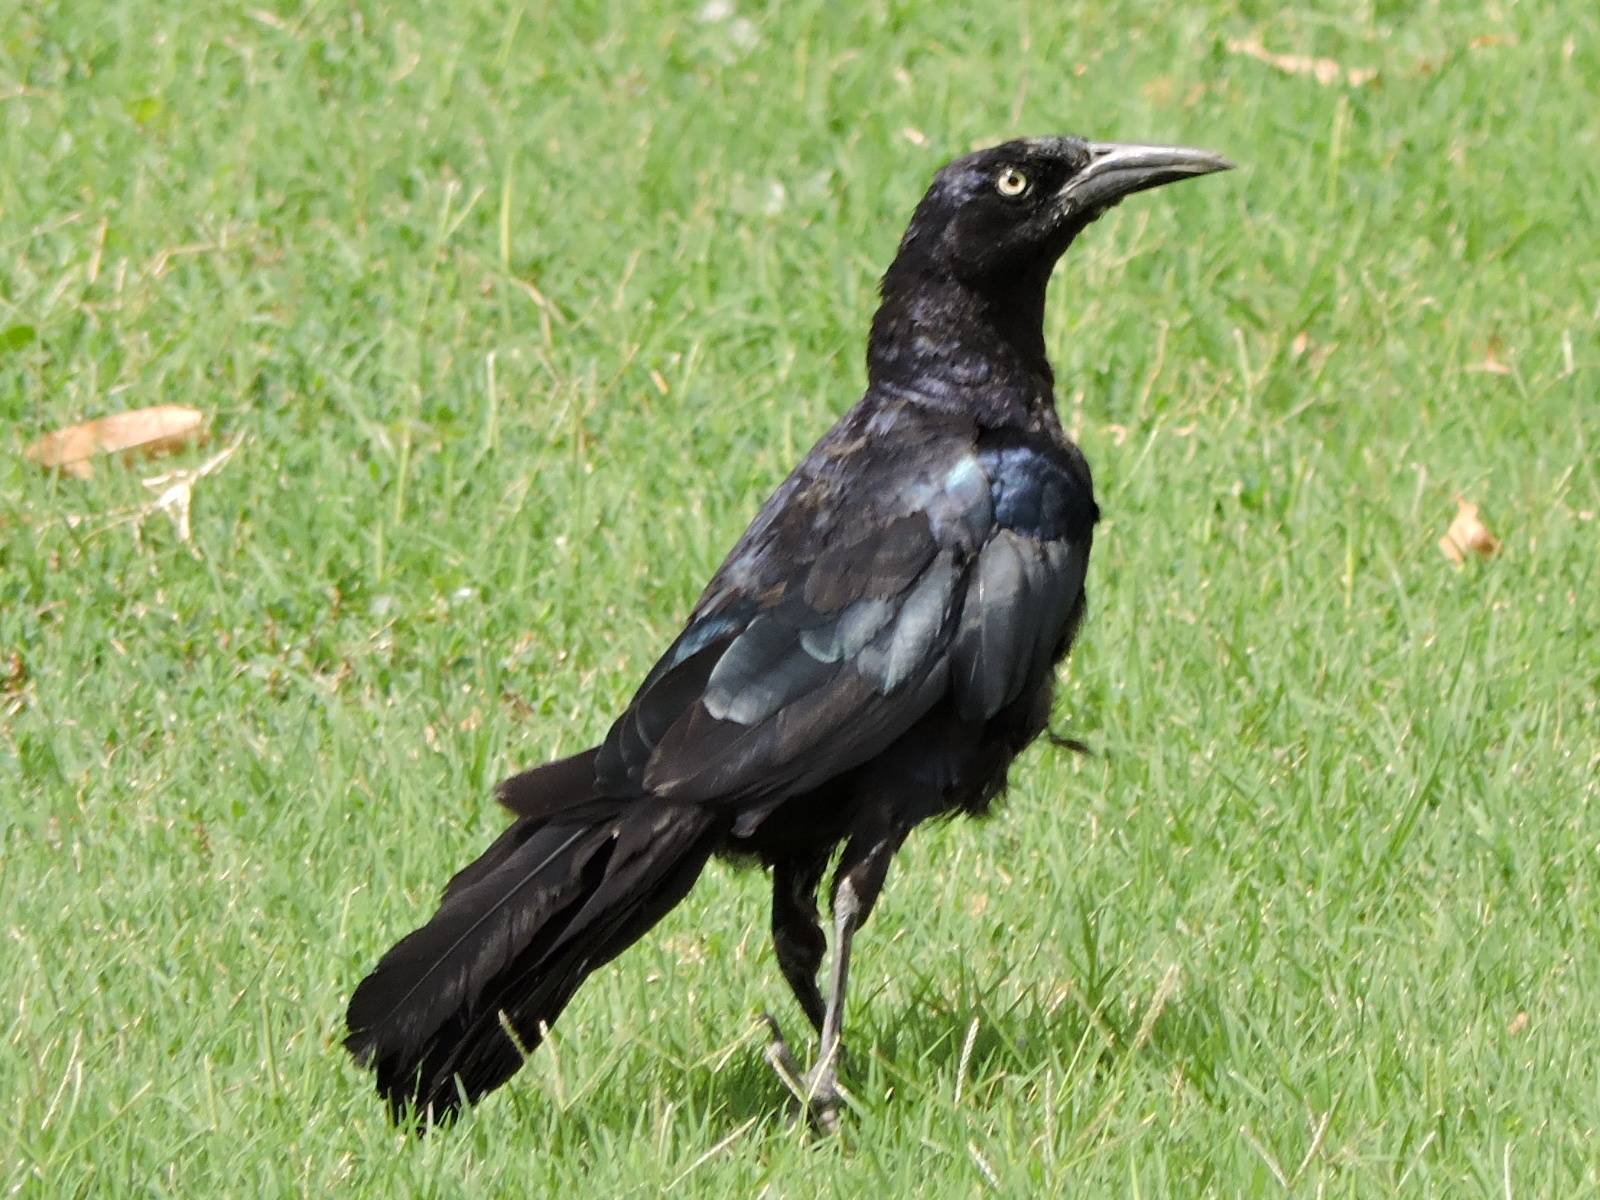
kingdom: Animalia
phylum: Chordata
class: Aves
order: Passeriformes
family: Icteridae
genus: Quiscalus
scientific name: Quiscalus mexicanus
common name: Great-tailed grackle
